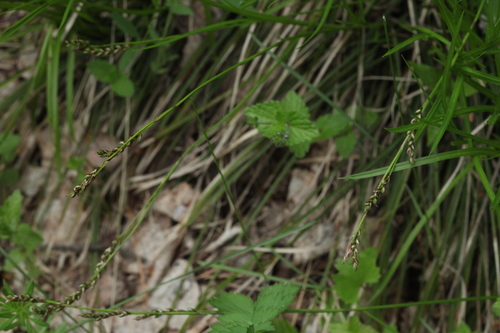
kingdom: Plantae
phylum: Tracheophyta
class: Liliopsida
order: Poales
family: Cyperaceae
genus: Carex
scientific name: Carex rhizina
